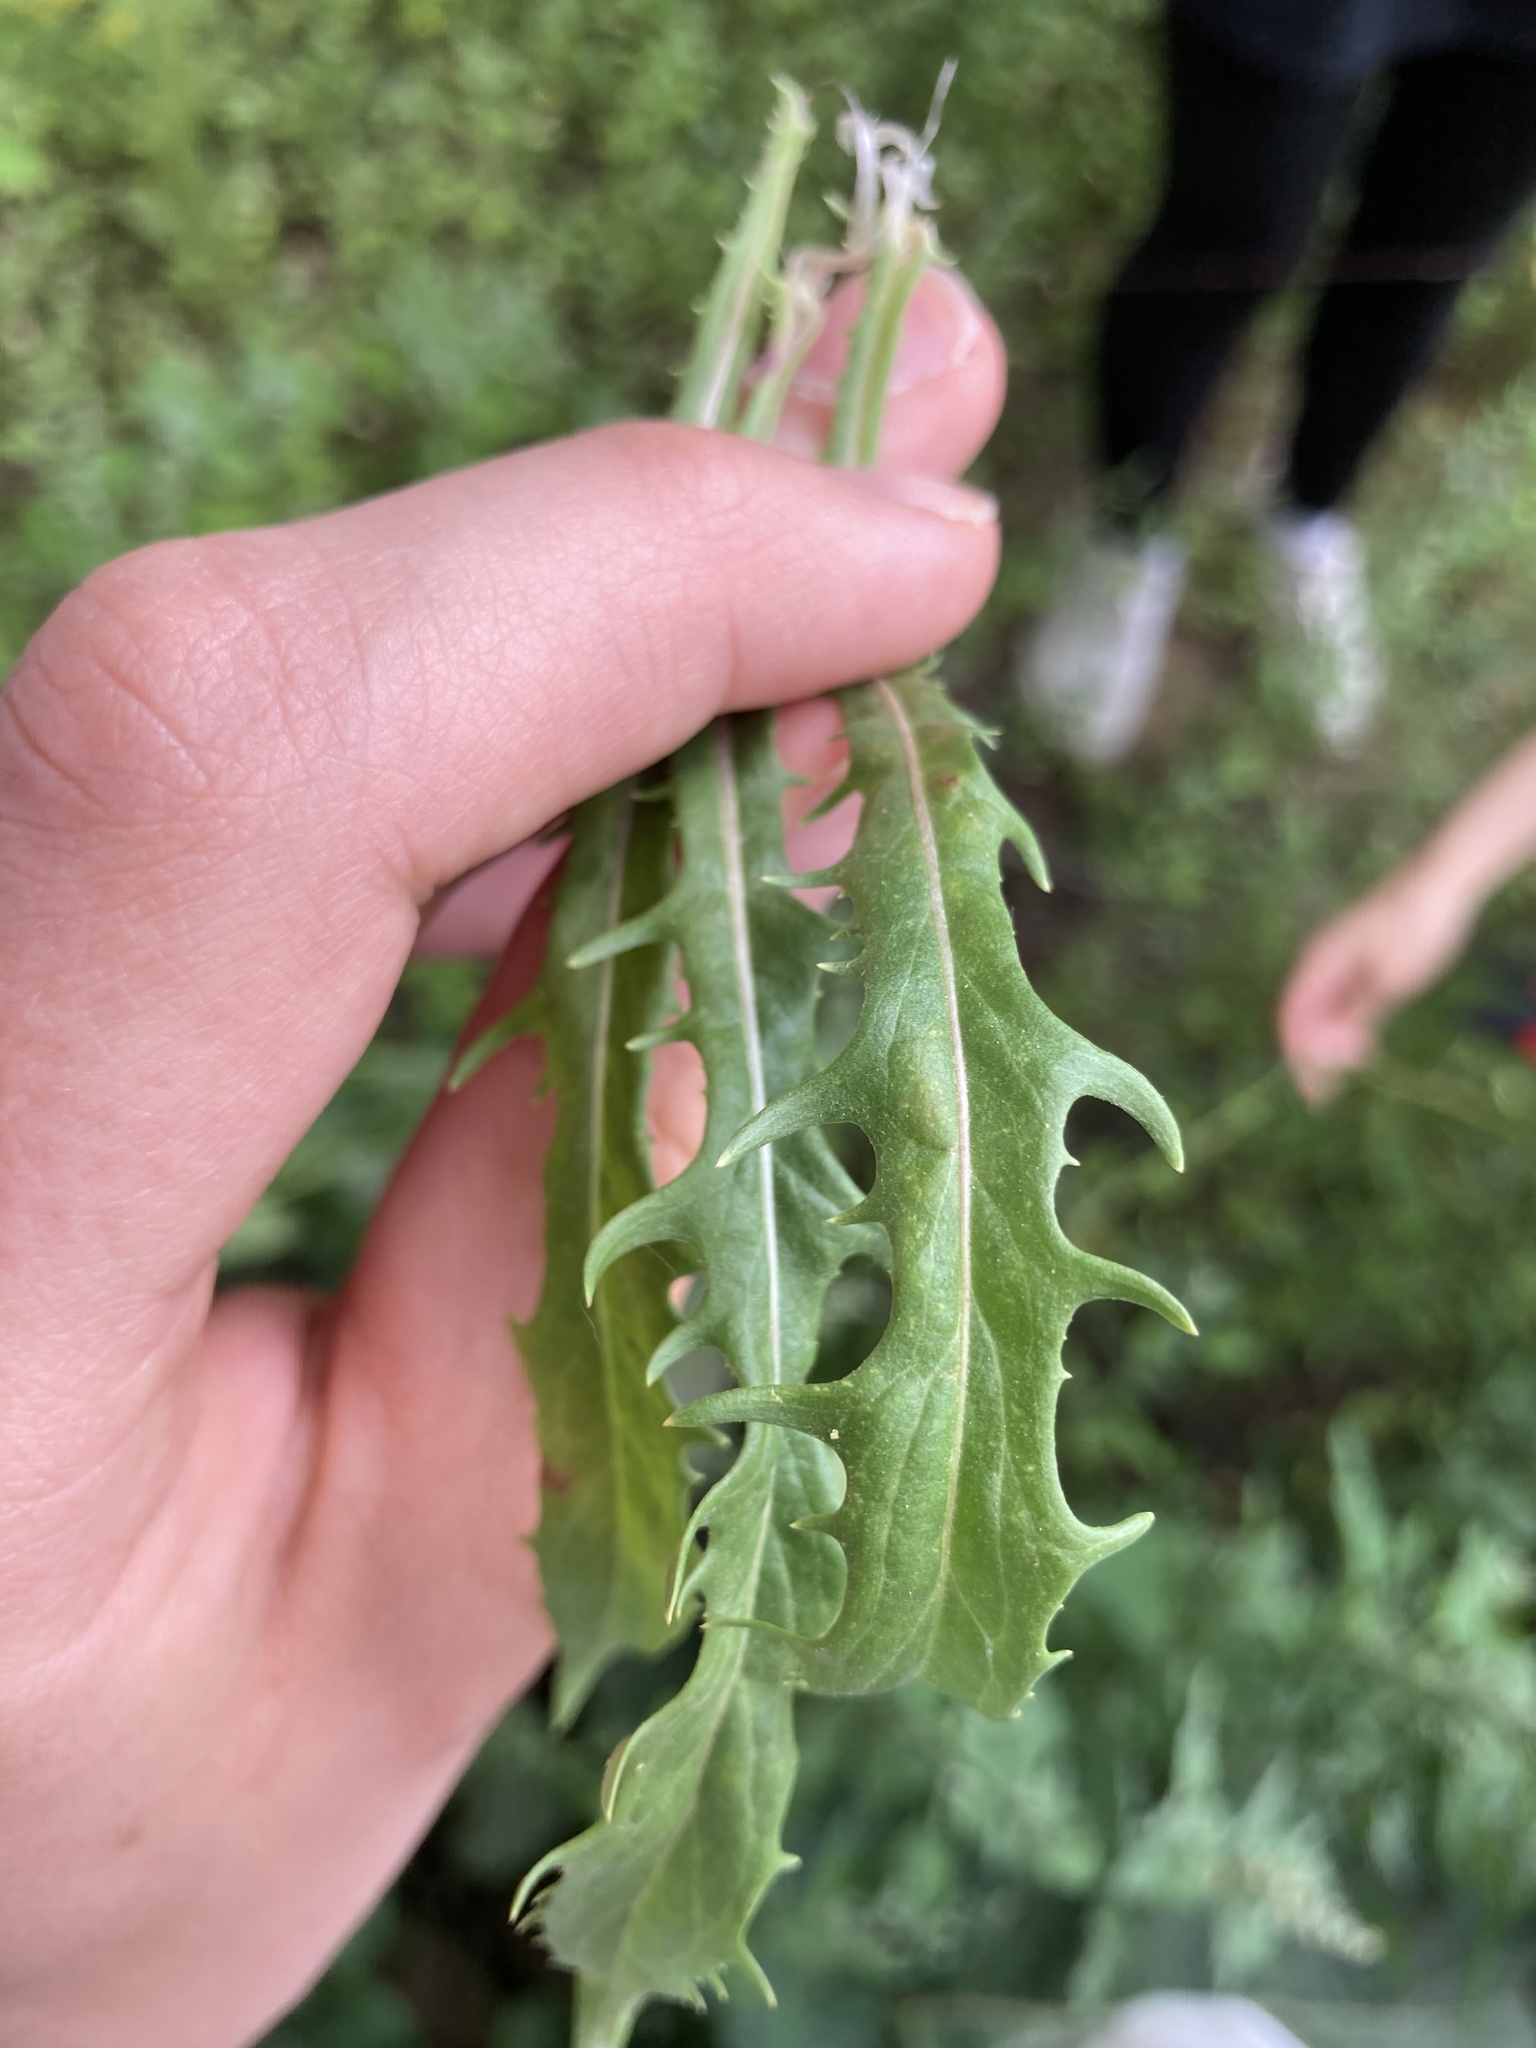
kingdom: Plantae
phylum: Tracheophyta
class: Magnoliopsida
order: Asterales
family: Asteraceae
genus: Crepis
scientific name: Crepis tectorum
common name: Narrow-leaved hawk's-beard
